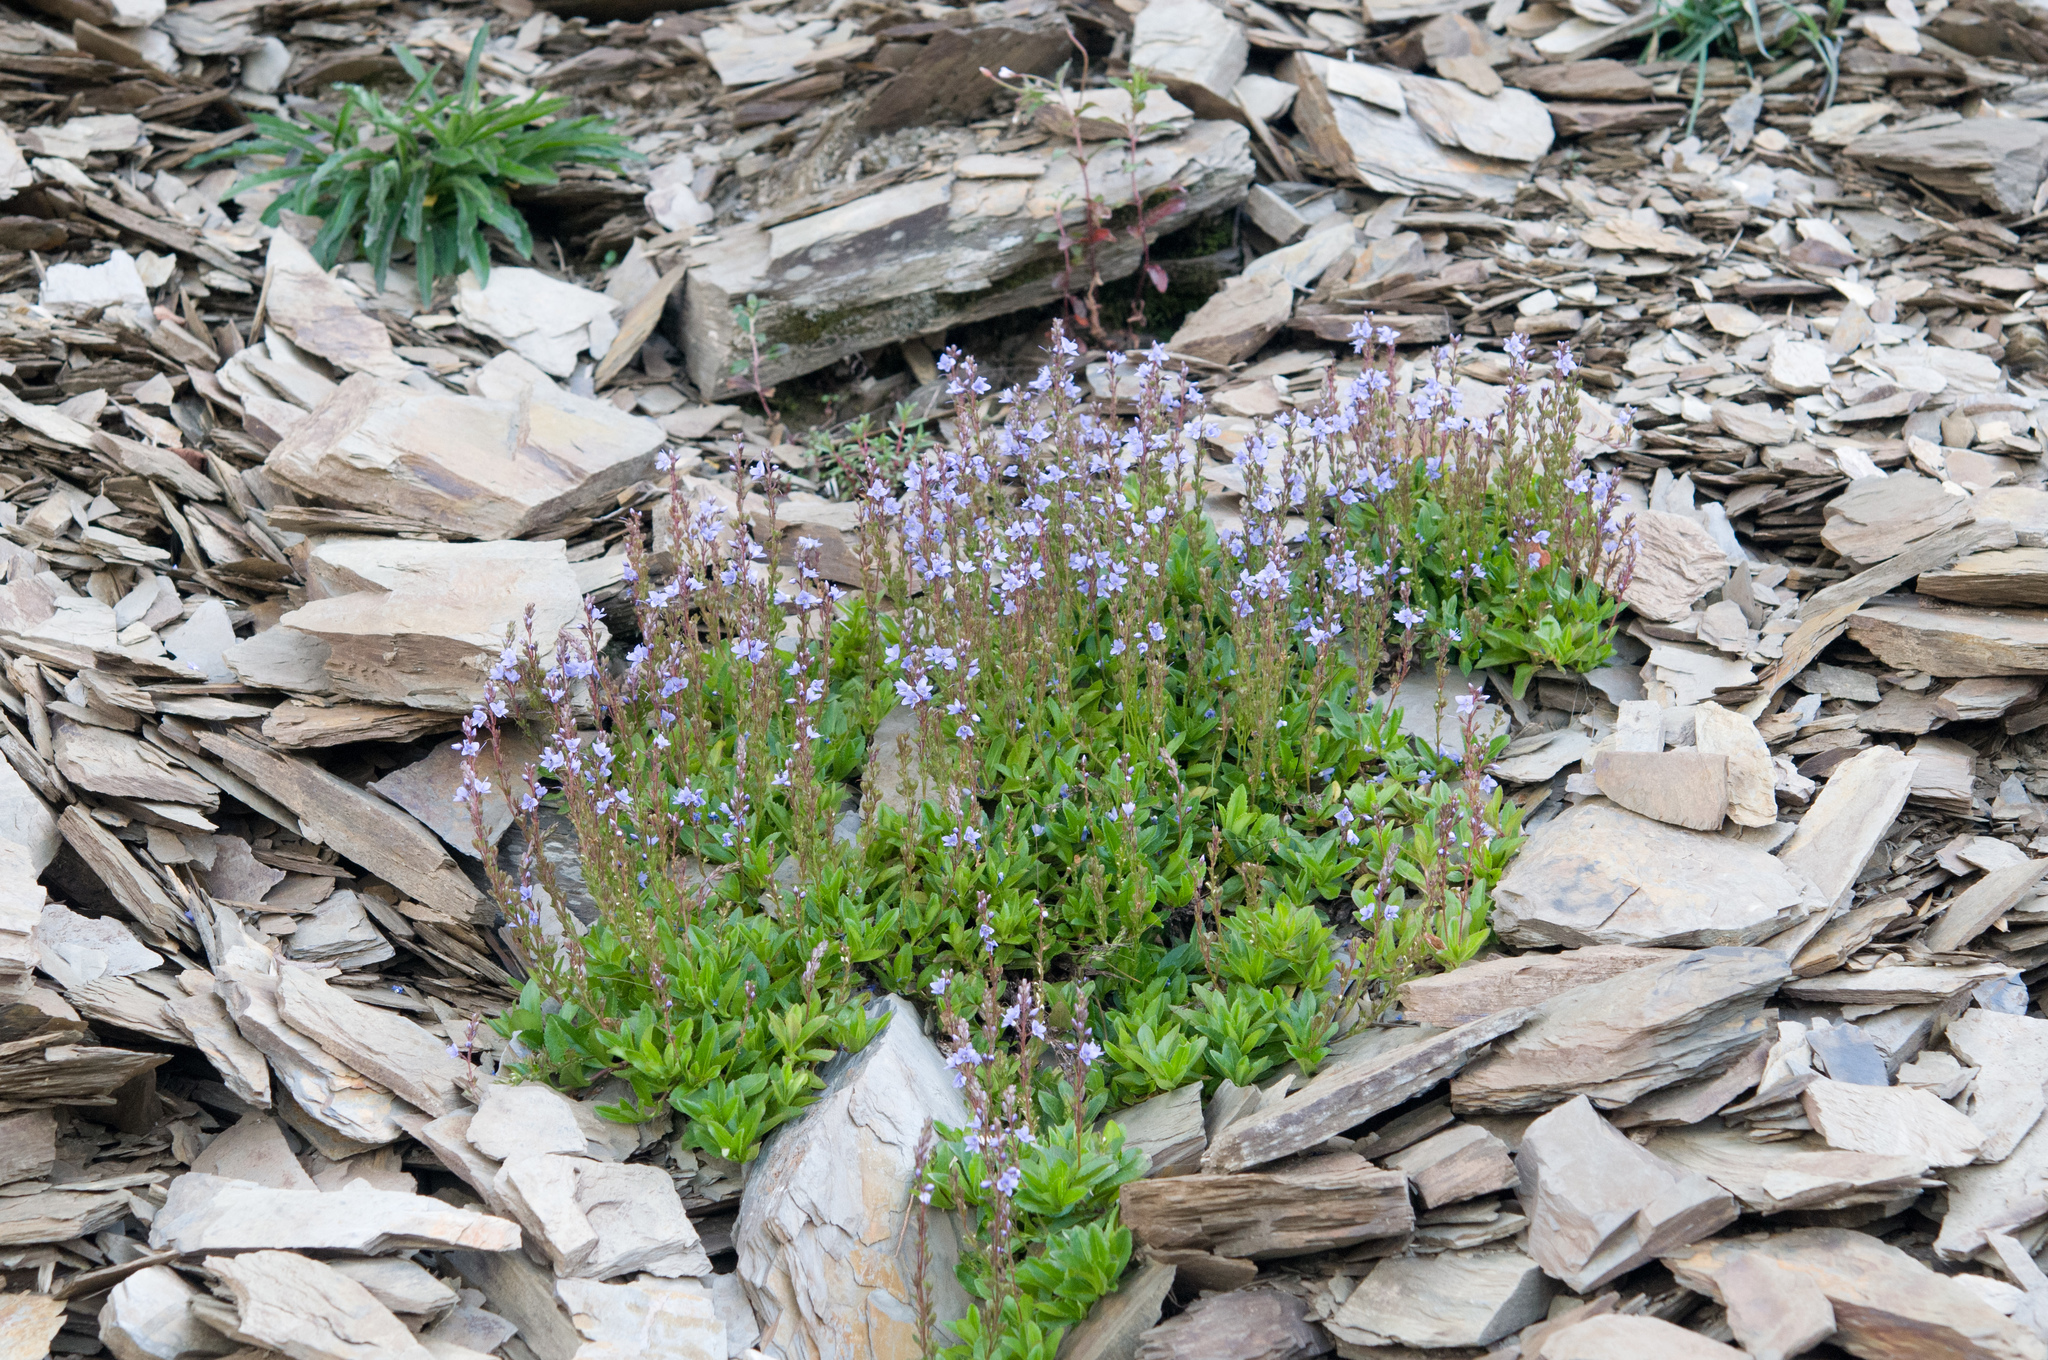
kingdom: Plantae
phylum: Tracheophyta
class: Magnoliopsida
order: Lamiales
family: Plantaginaceae
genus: Veronica
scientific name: Veronica morrisonicola
